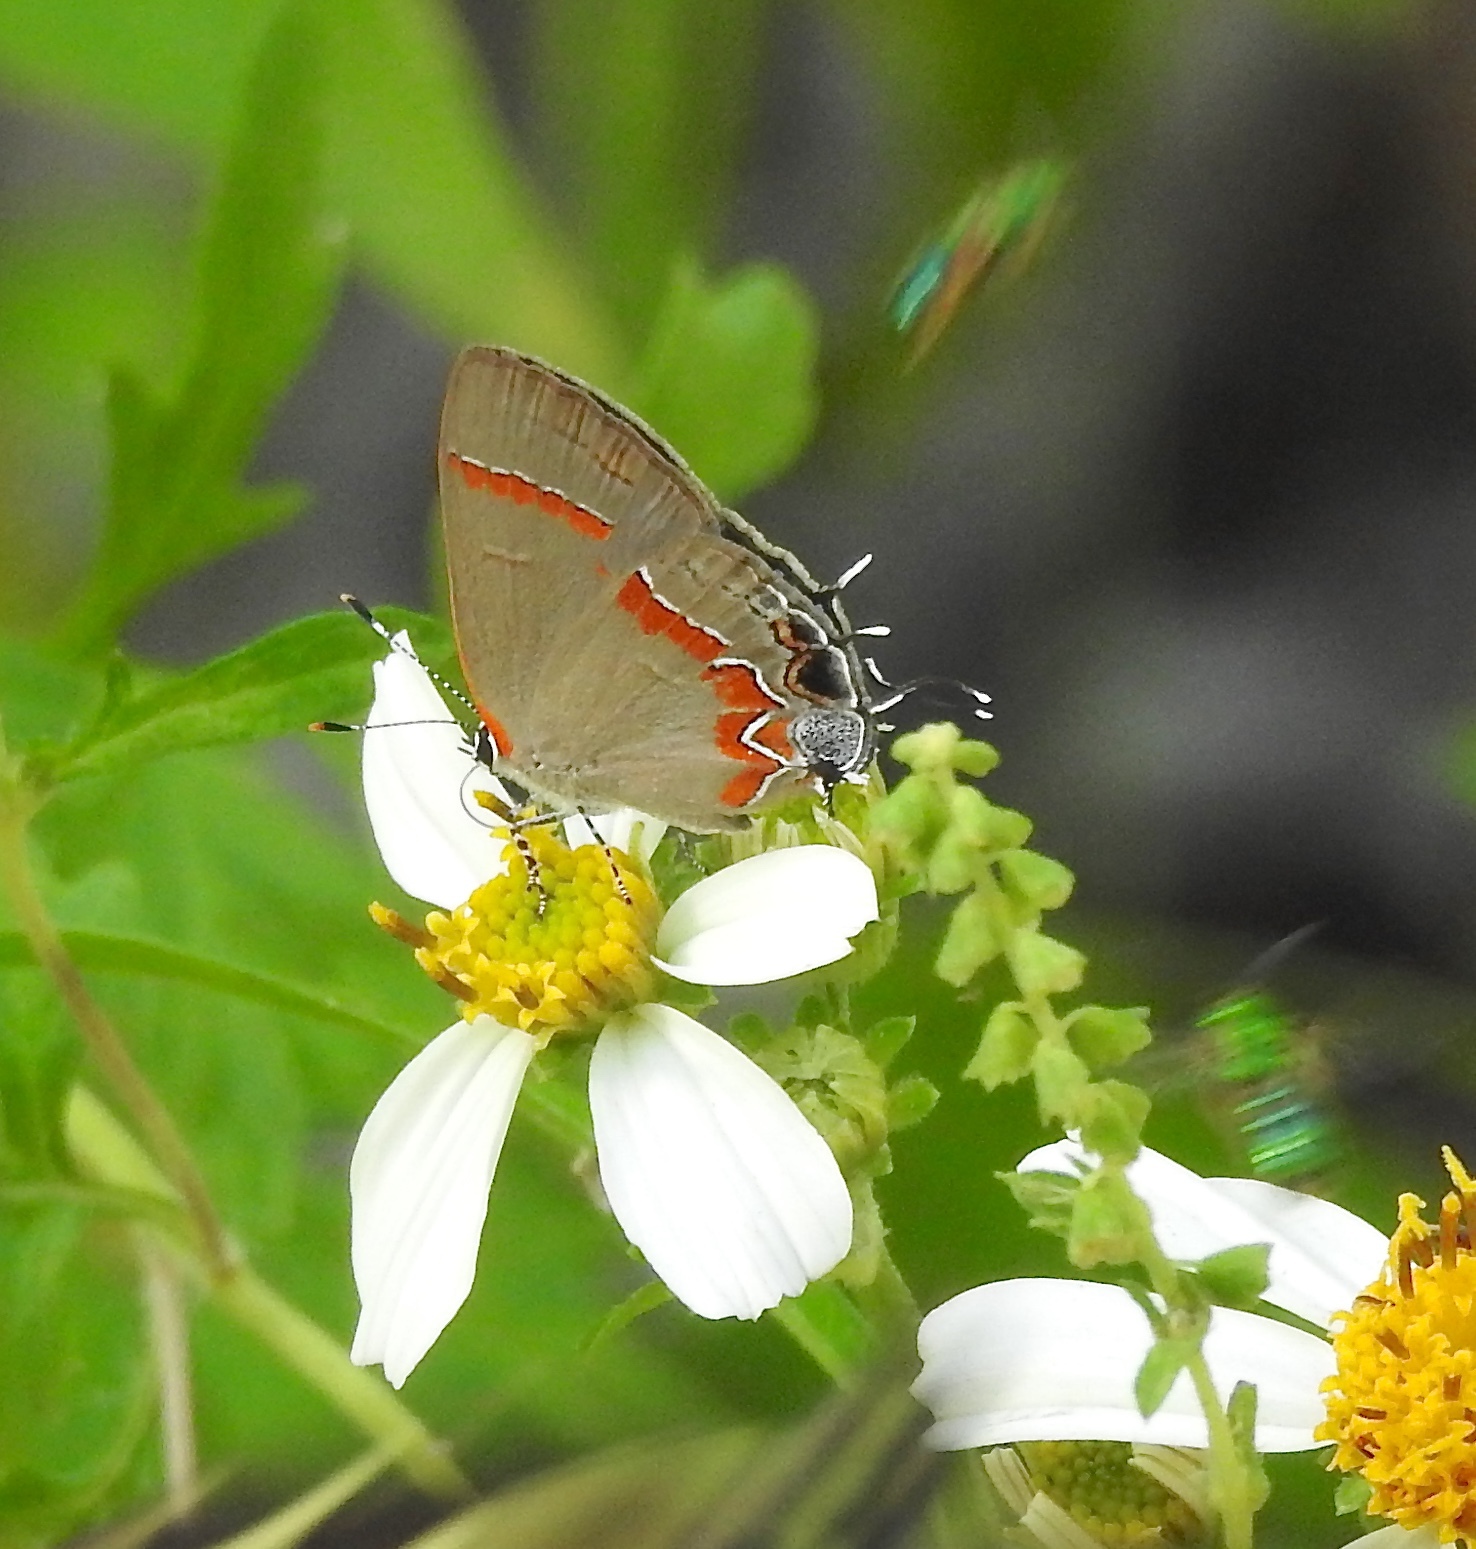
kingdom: Animalia
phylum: Arthropoda
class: Insecta
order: Lepidoptera
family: Lycaenidae
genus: Calycopis
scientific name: Calycopis cecrops
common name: Red-banded hairstreak
